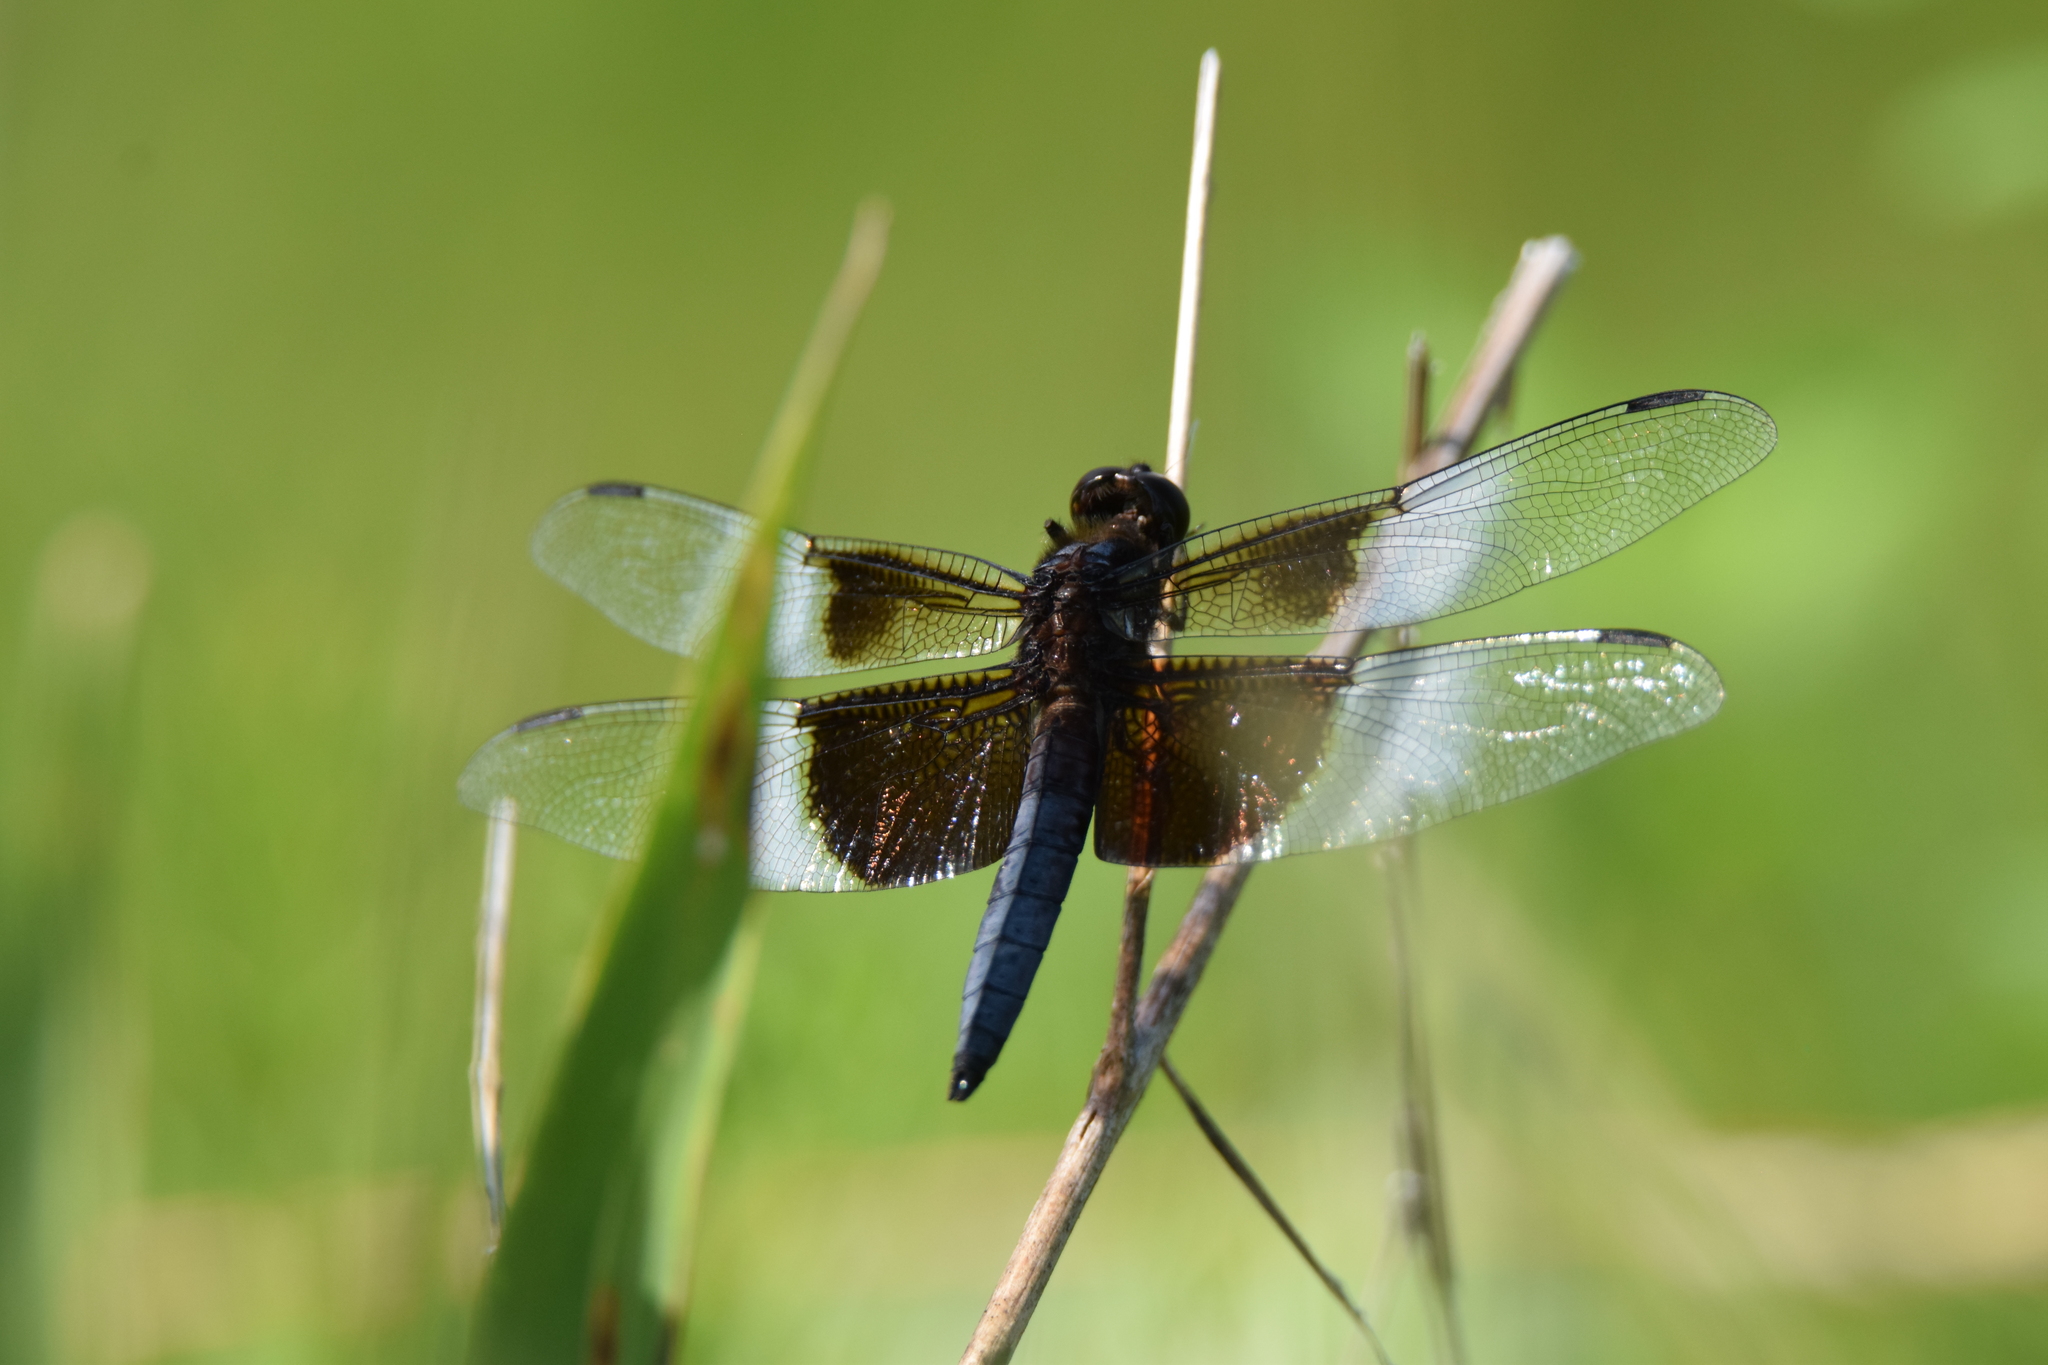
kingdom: Animalia
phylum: Arthropoda
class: Insecta
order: Odonata
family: Libellulidae
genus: Libellula
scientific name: Libellula luctuosa
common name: Widow skimmer
